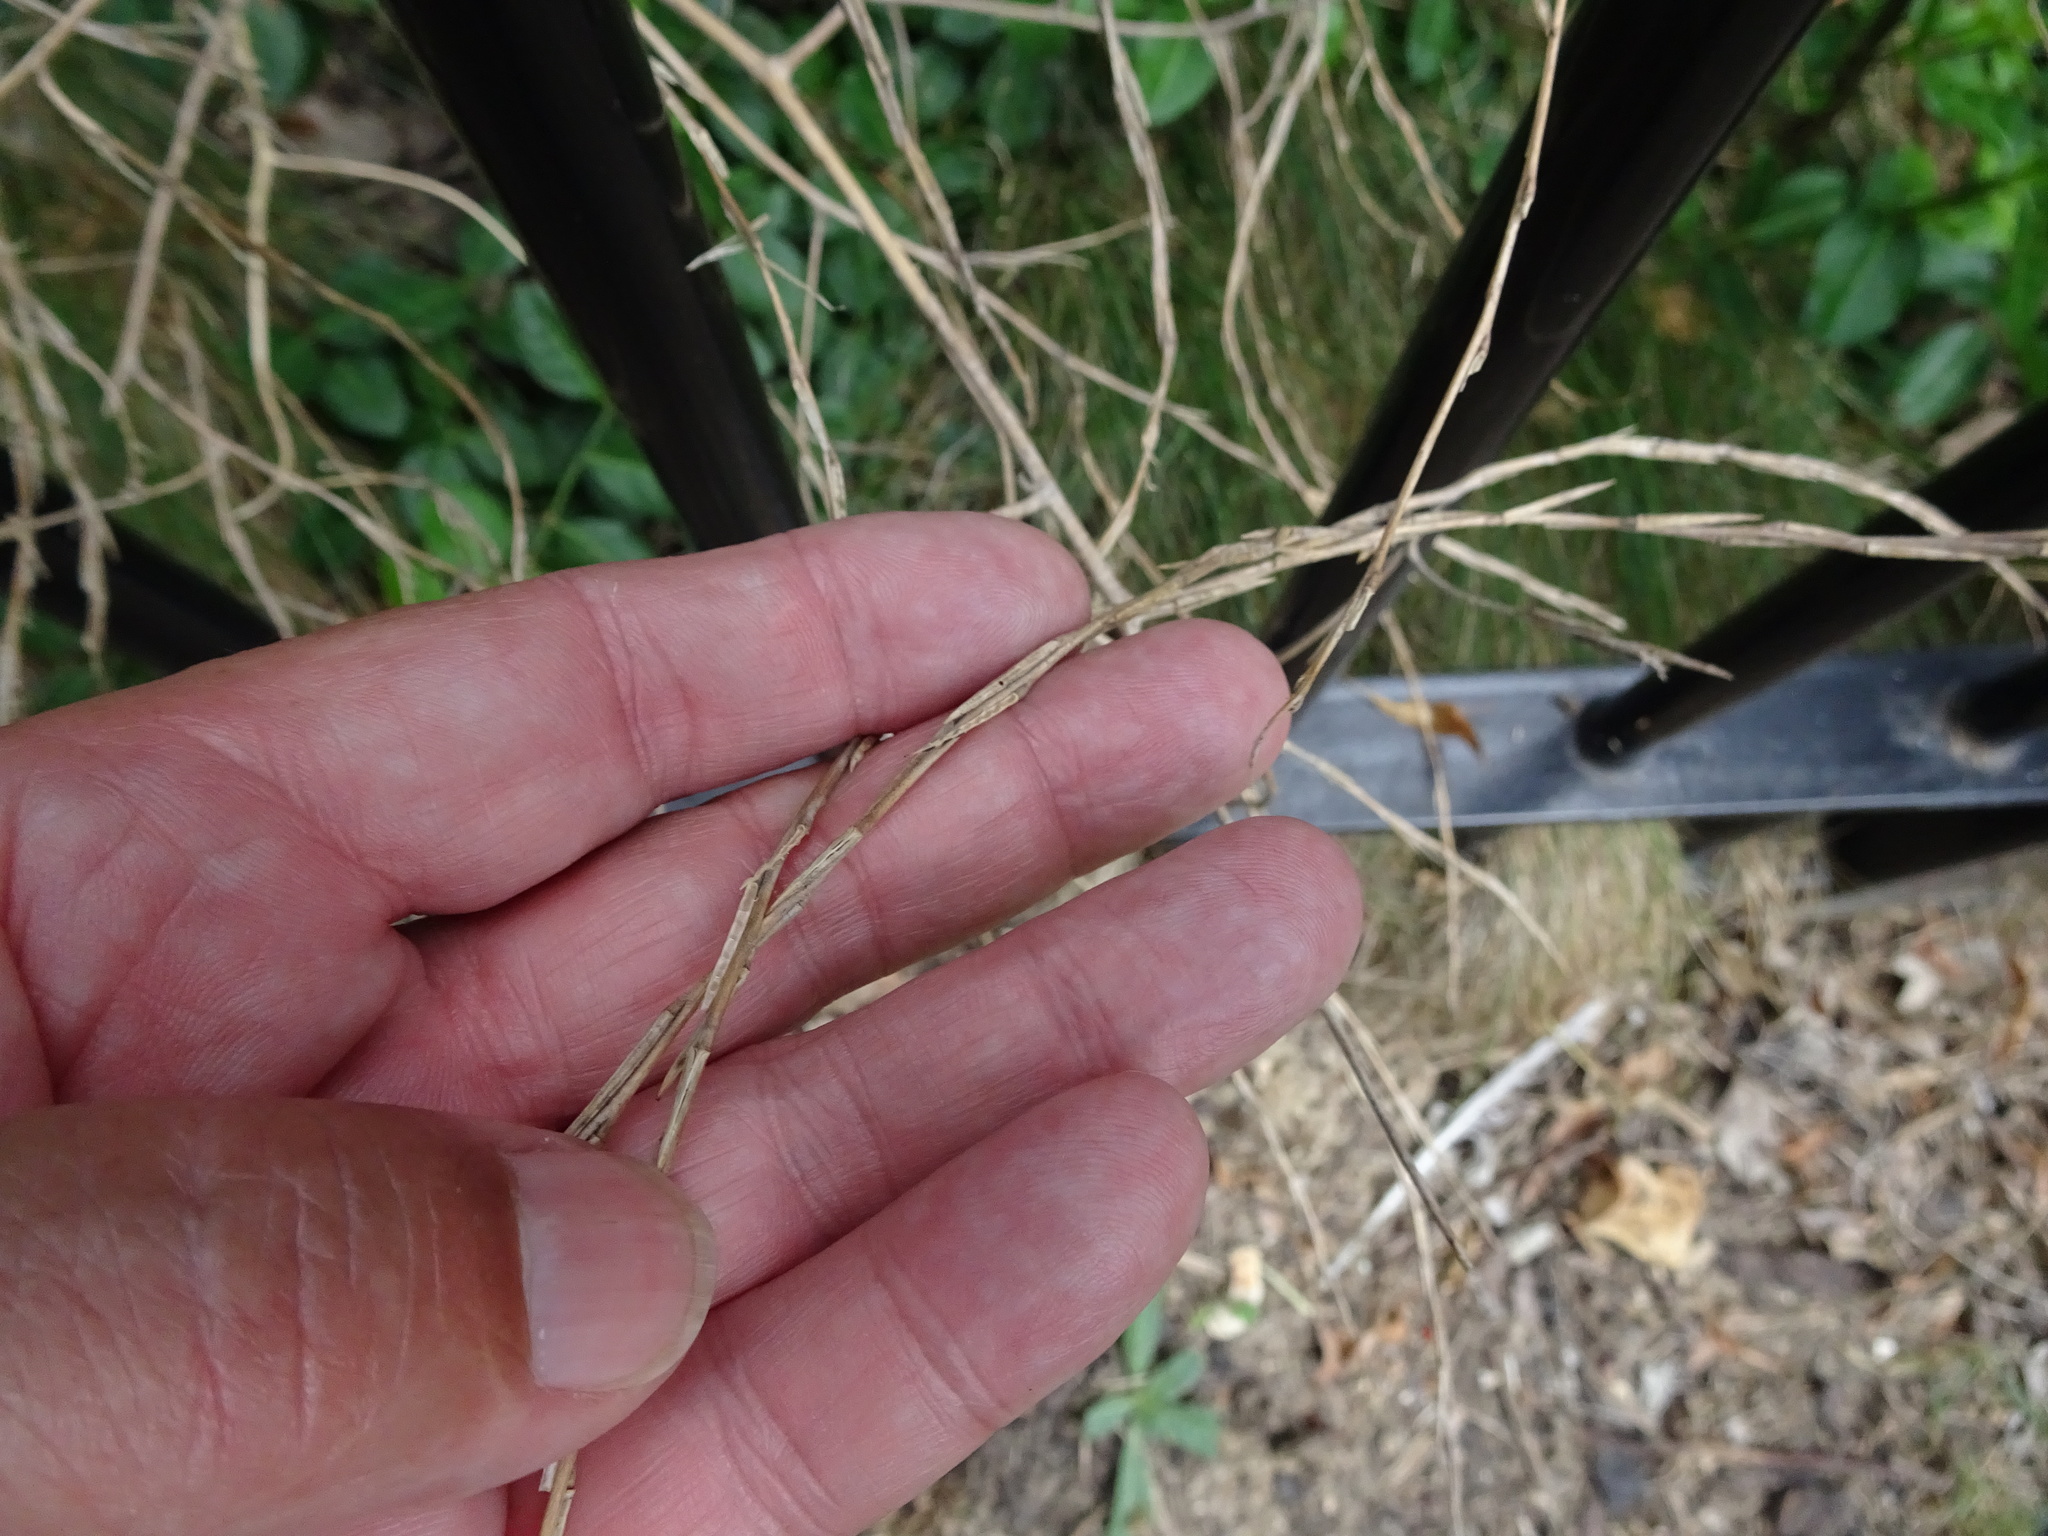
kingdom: Plantae
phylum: Tracheophyta
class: Magnoliopsida
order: Brassicales
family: Brassicaceae
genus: Sisymbrium
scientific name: Sisymbrium officinale
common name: Hedge mustard
